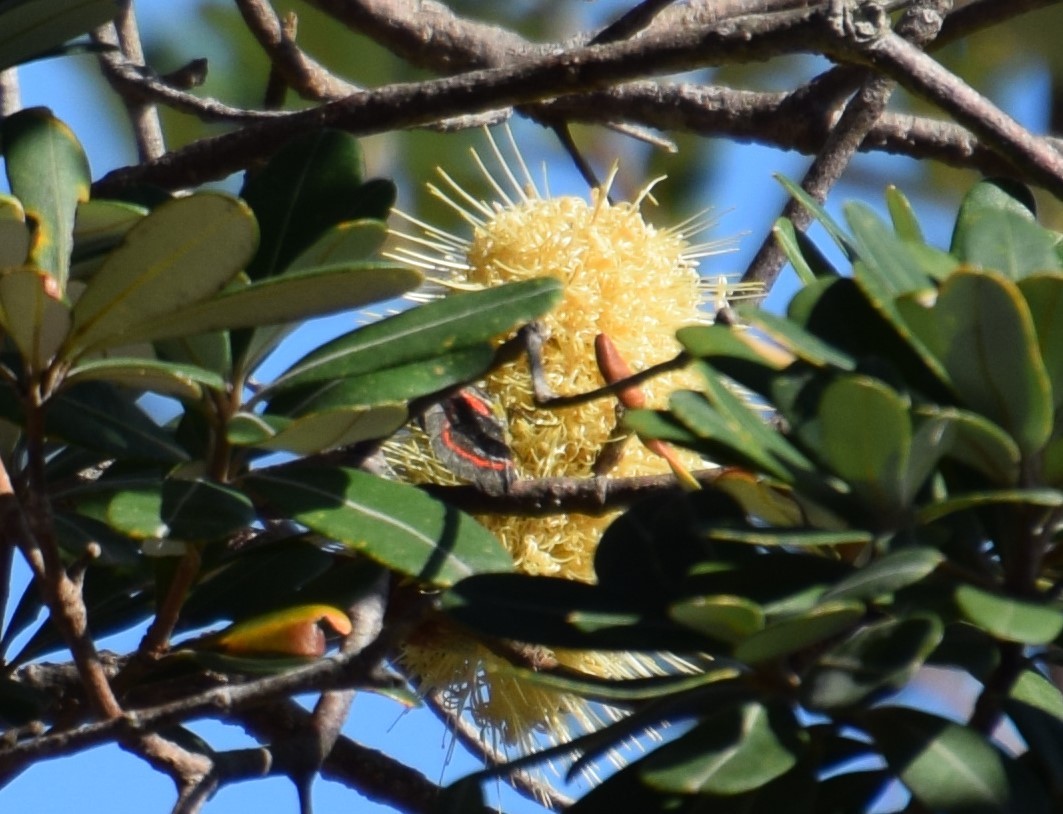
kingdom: Animalia
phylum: Arthropoda
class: Insecta
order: Lepidoptera
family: Pieridae
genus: Delias
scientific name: Delias nigrina
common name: Black jezebel
